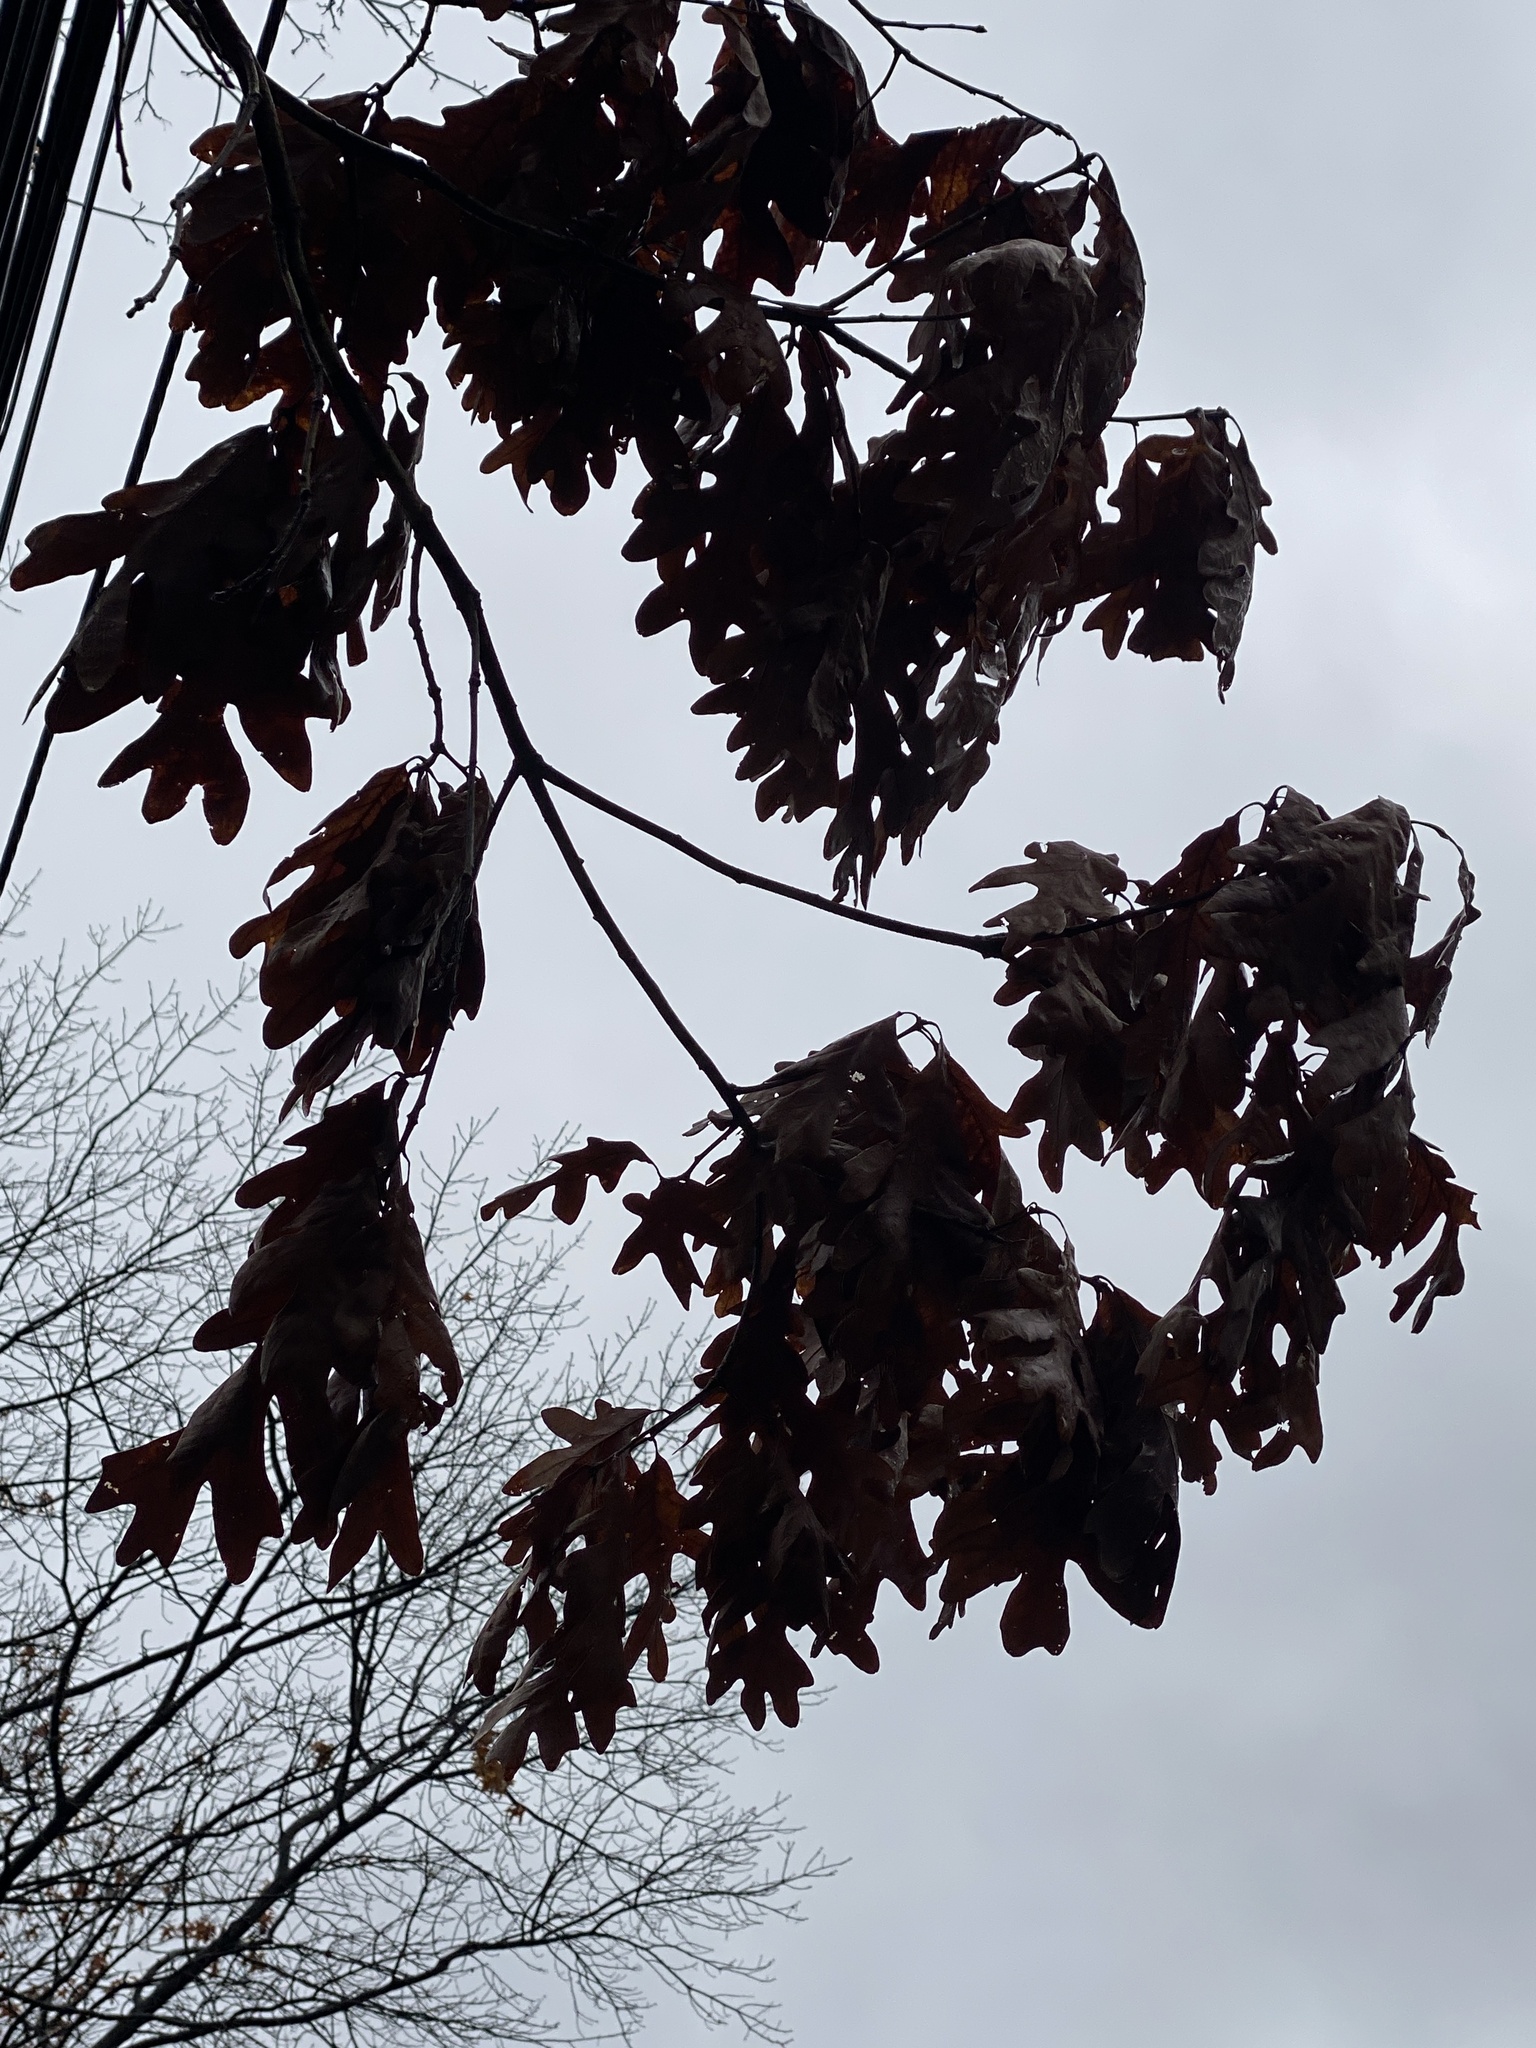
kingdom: Plantae
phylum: Tracheophyta
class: Magnoliopsida
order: Fagales
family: Fagaceae
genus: Quercus
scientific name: Quercus alba
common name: White oak
